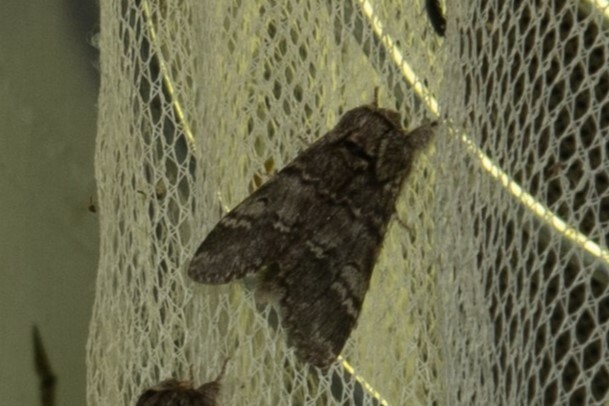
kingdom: Animalia
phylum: Arthropoda
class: Insecta
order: Lepidoptera
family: Notodontidae
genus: Drymonia
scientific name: Drymonia ruficornis
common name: Lunar marbled brown
